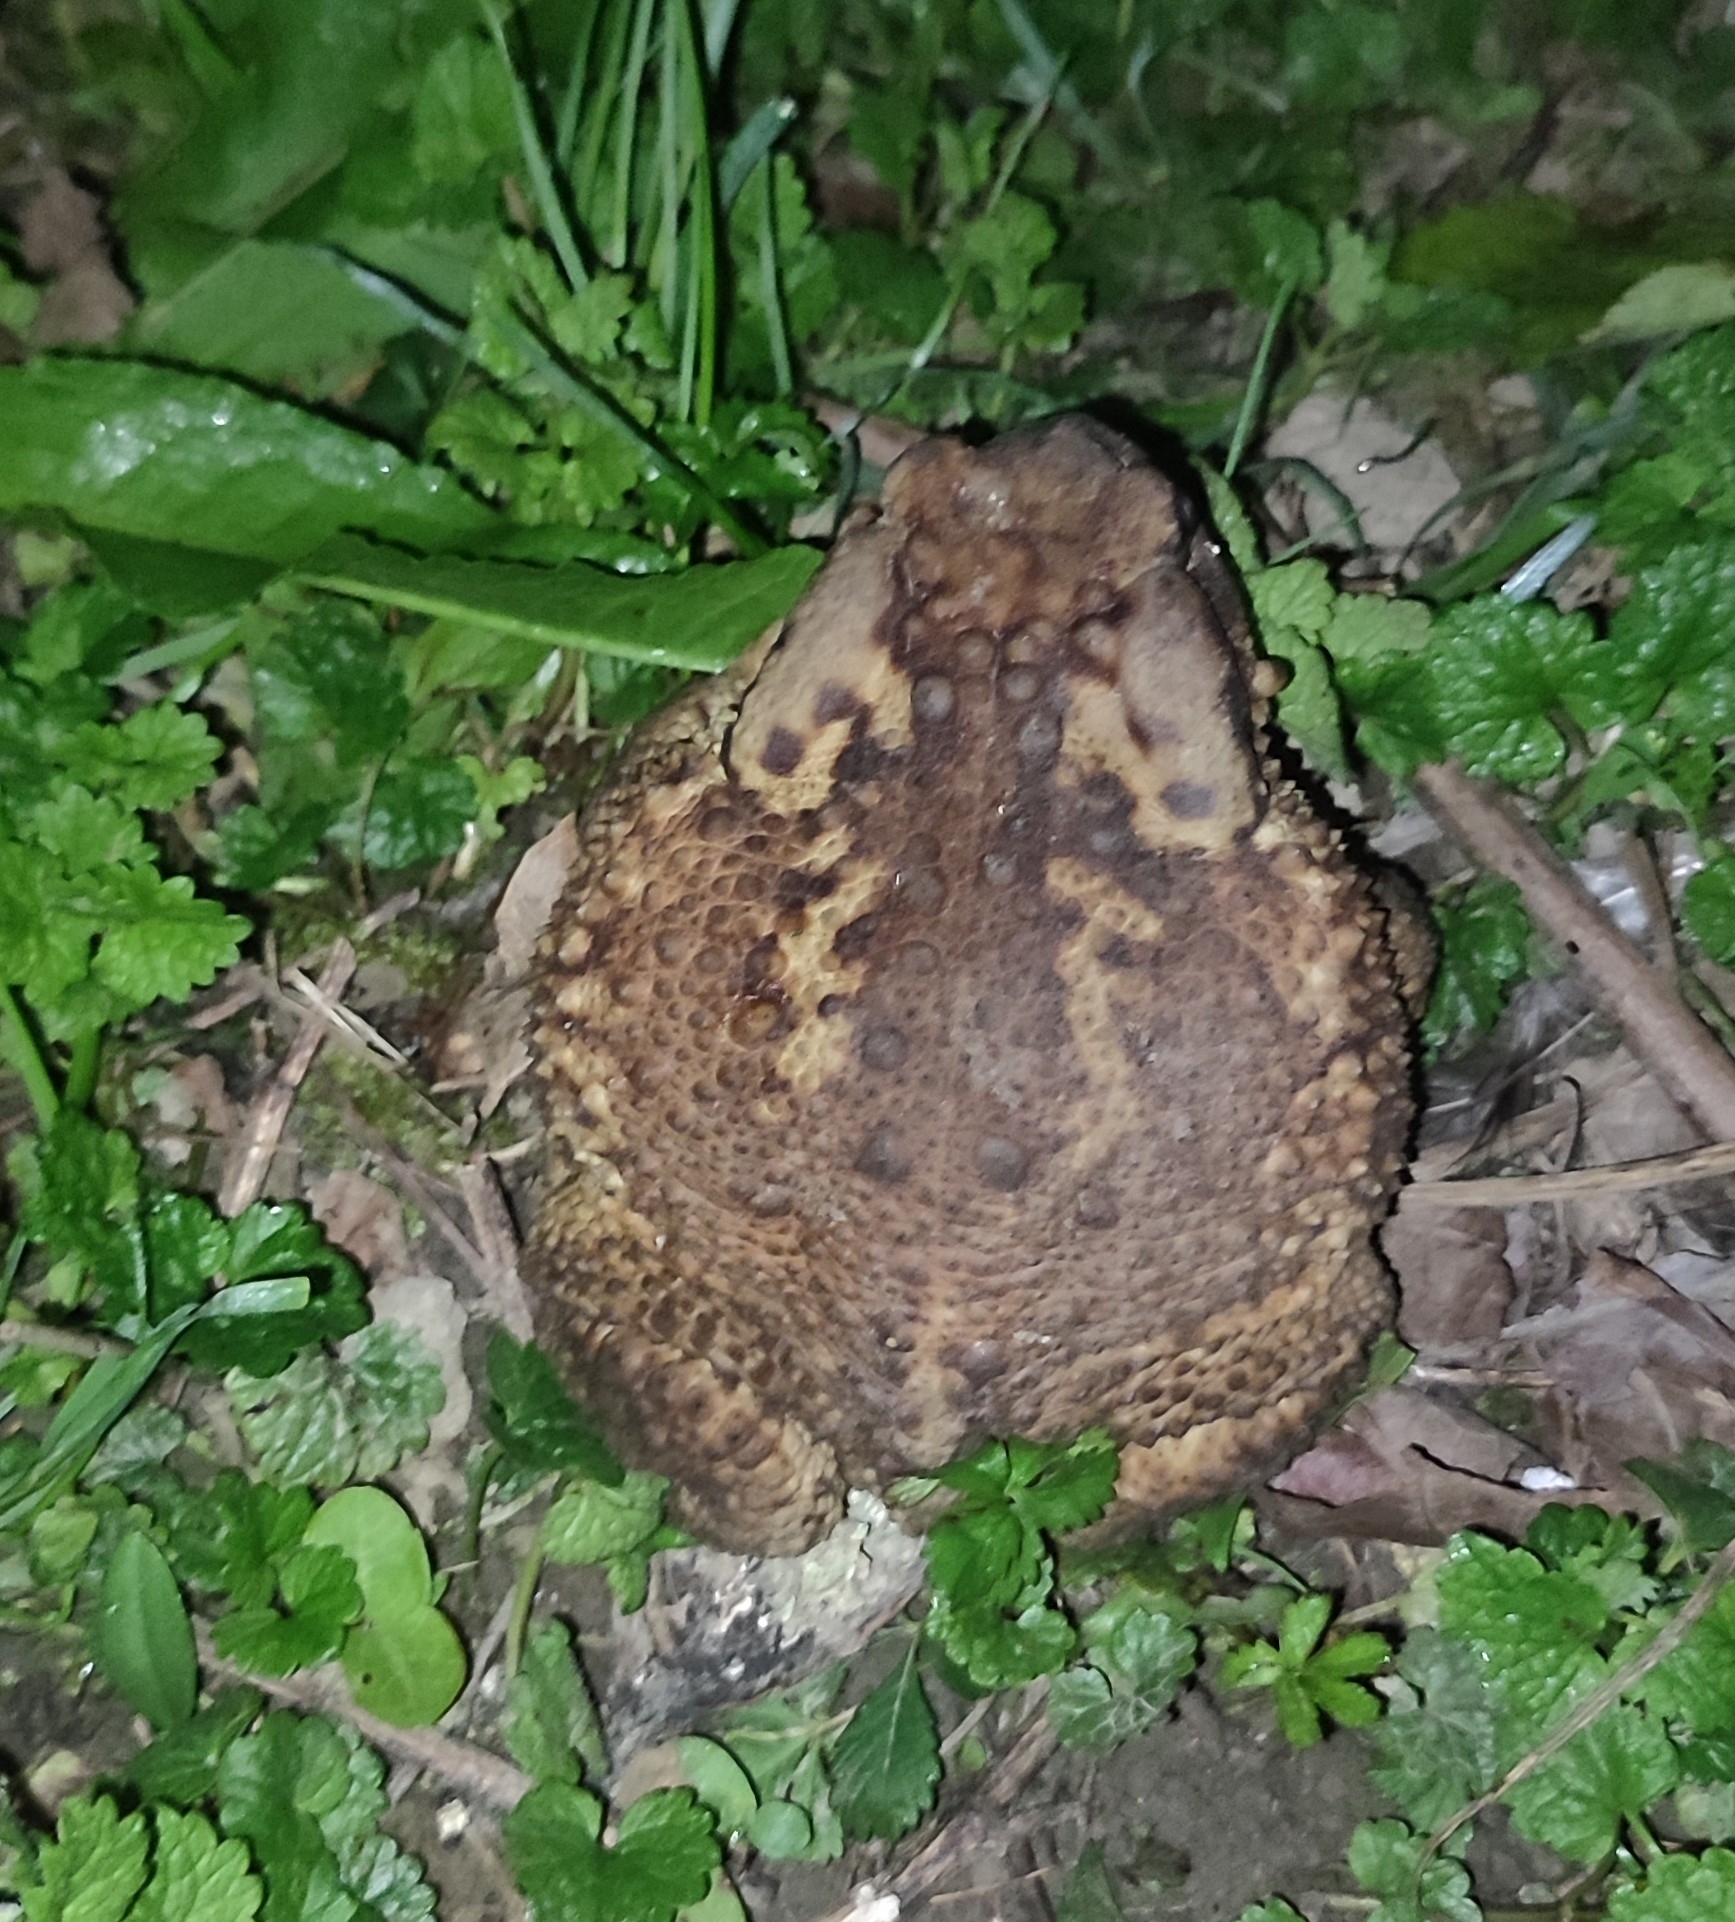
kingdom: Animalia
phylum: Chordata
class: Amphibia
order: Anura
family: Bufonidae
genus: Bufo
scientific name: Bufo verrucosissimus
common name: Caucasian toad
